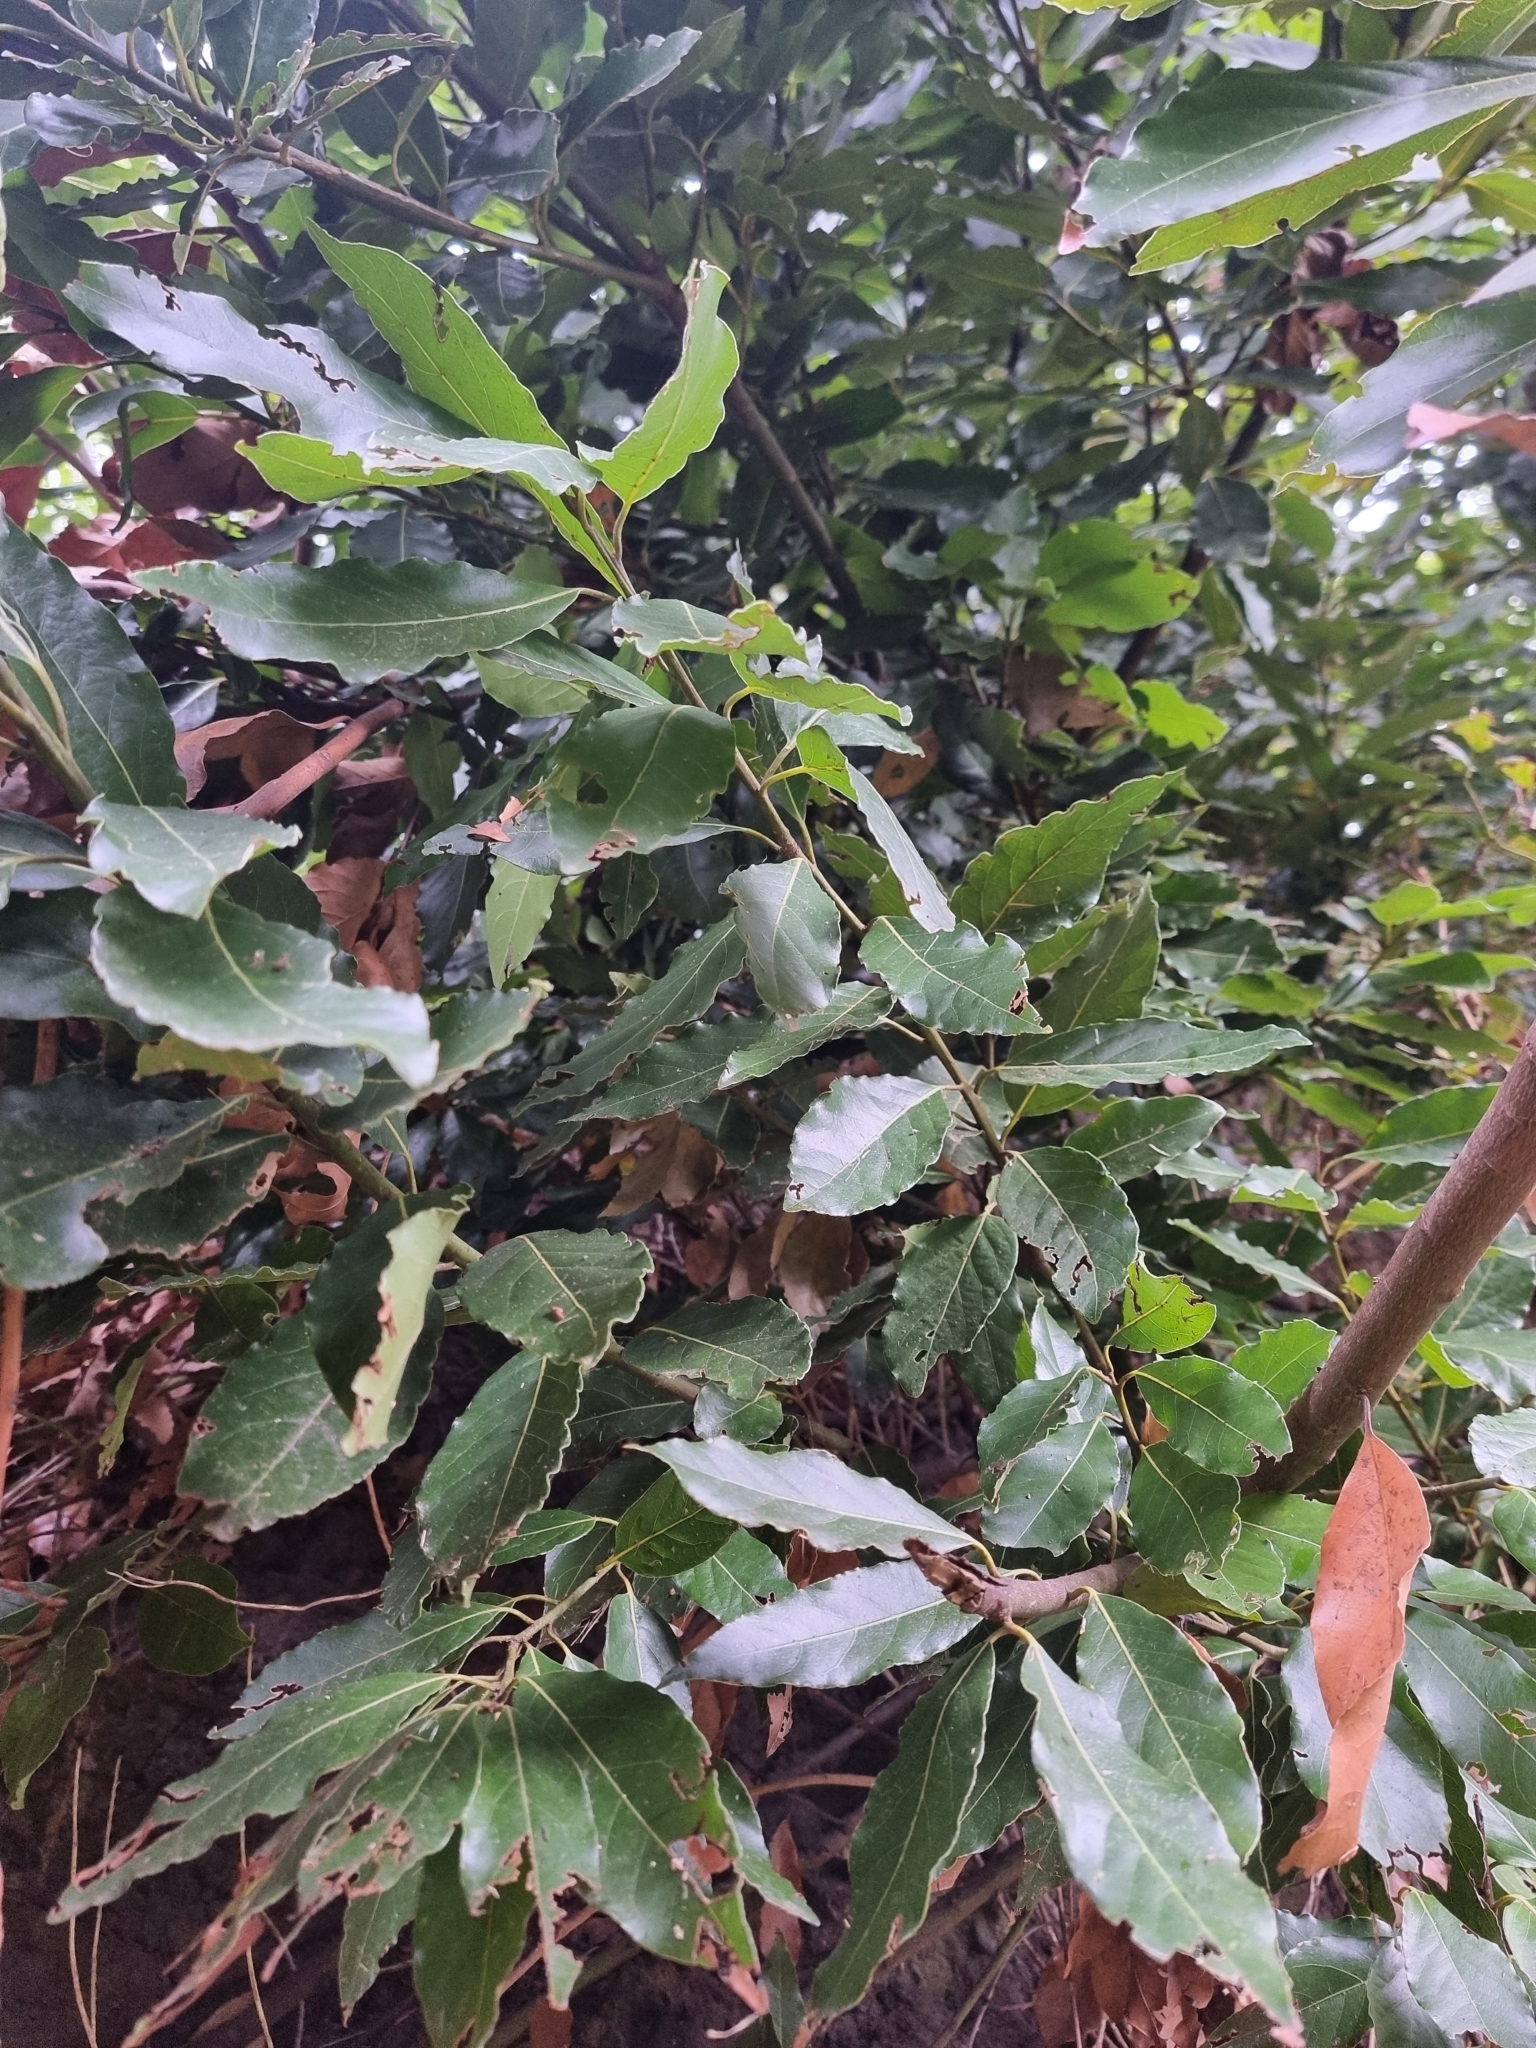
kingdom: Plantae
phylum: Tracheophyta
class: Magnoliopsida
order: Laurales
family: Lauraceae
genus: Laurus
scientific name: Laurus novocanariensis
